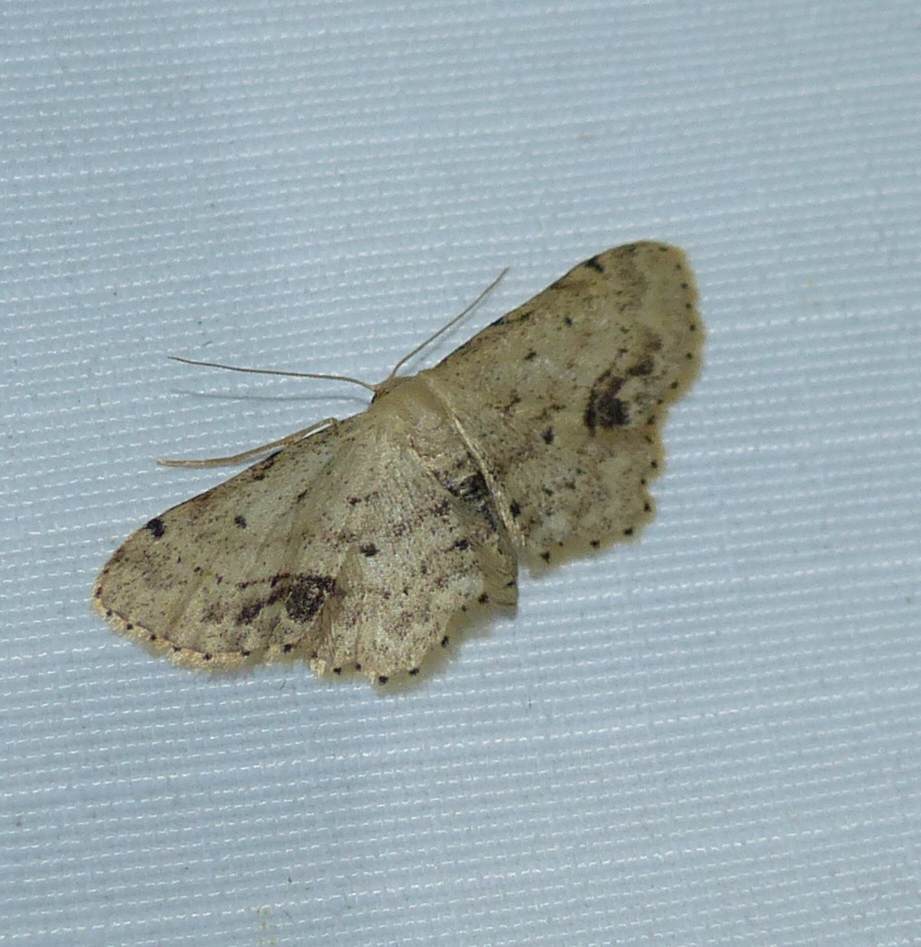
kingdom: Animalia
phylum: Arthropoda
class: Insecta
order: Lepidoptera
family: Geometridae
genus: Idaea
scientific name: Idaea dimidiata
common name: Single-dotted wave
